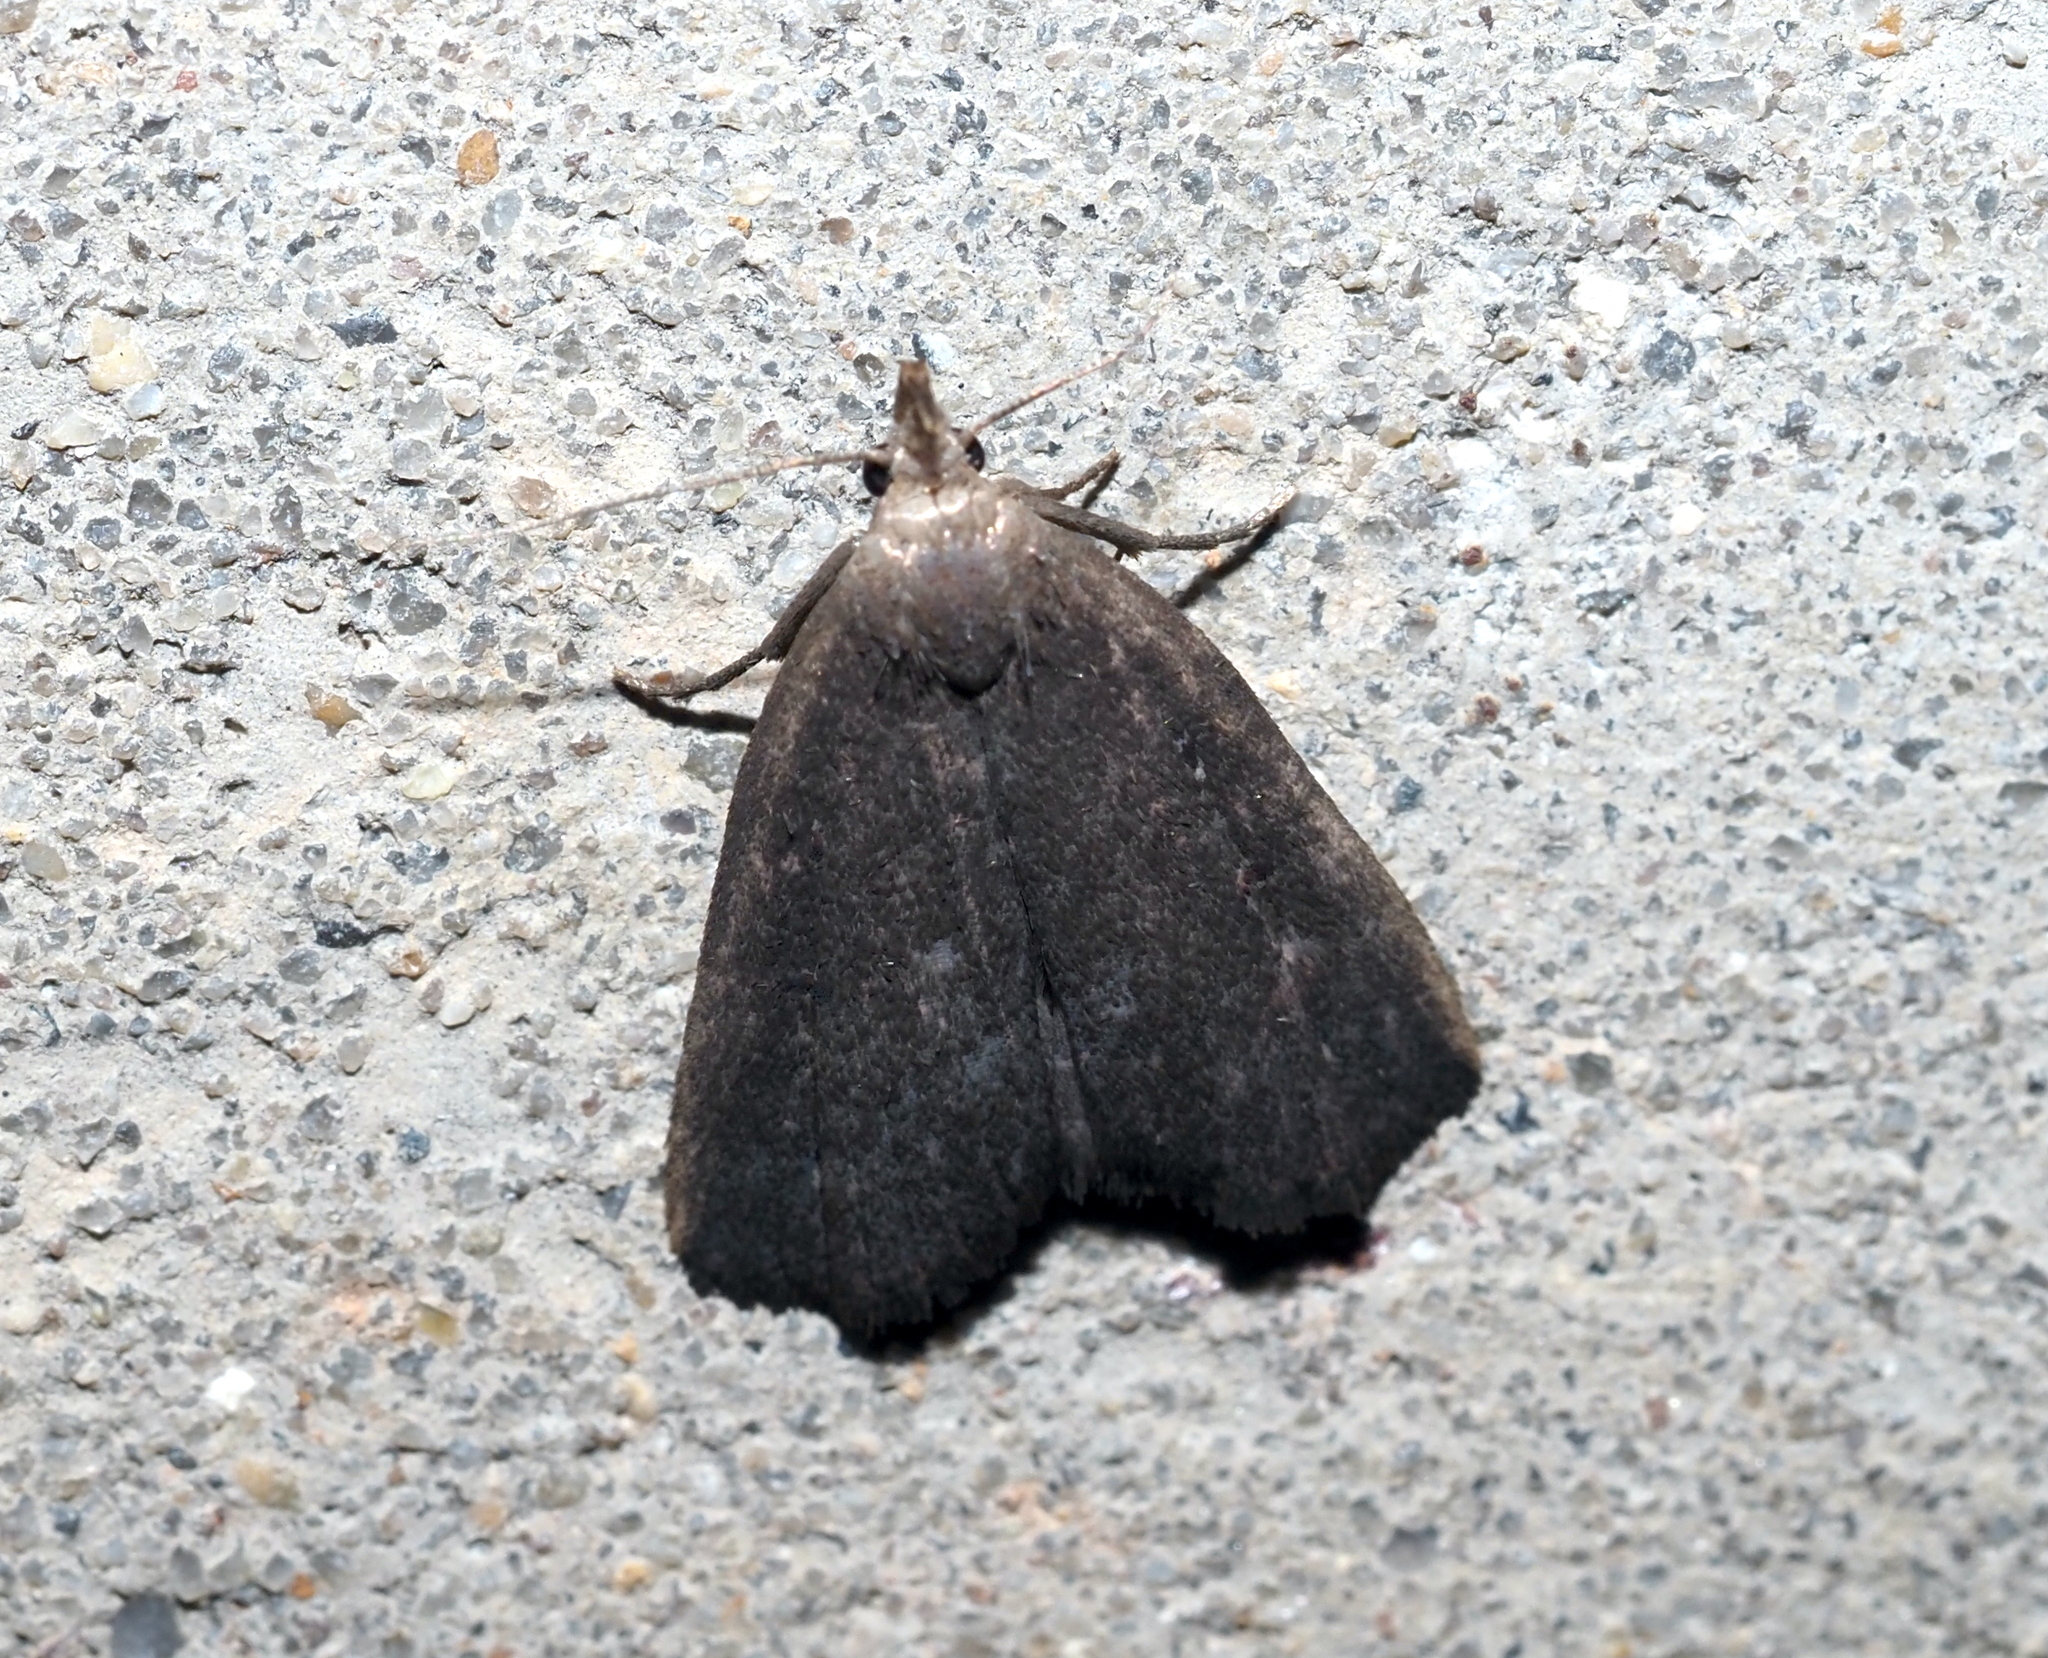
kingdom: Animalia
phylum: Arthropoda
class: Insecta
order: Lepidoptera
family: Erebidae
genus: Macrochilo
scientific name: Macrochilo orciferalis
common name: Bronzy owlet
